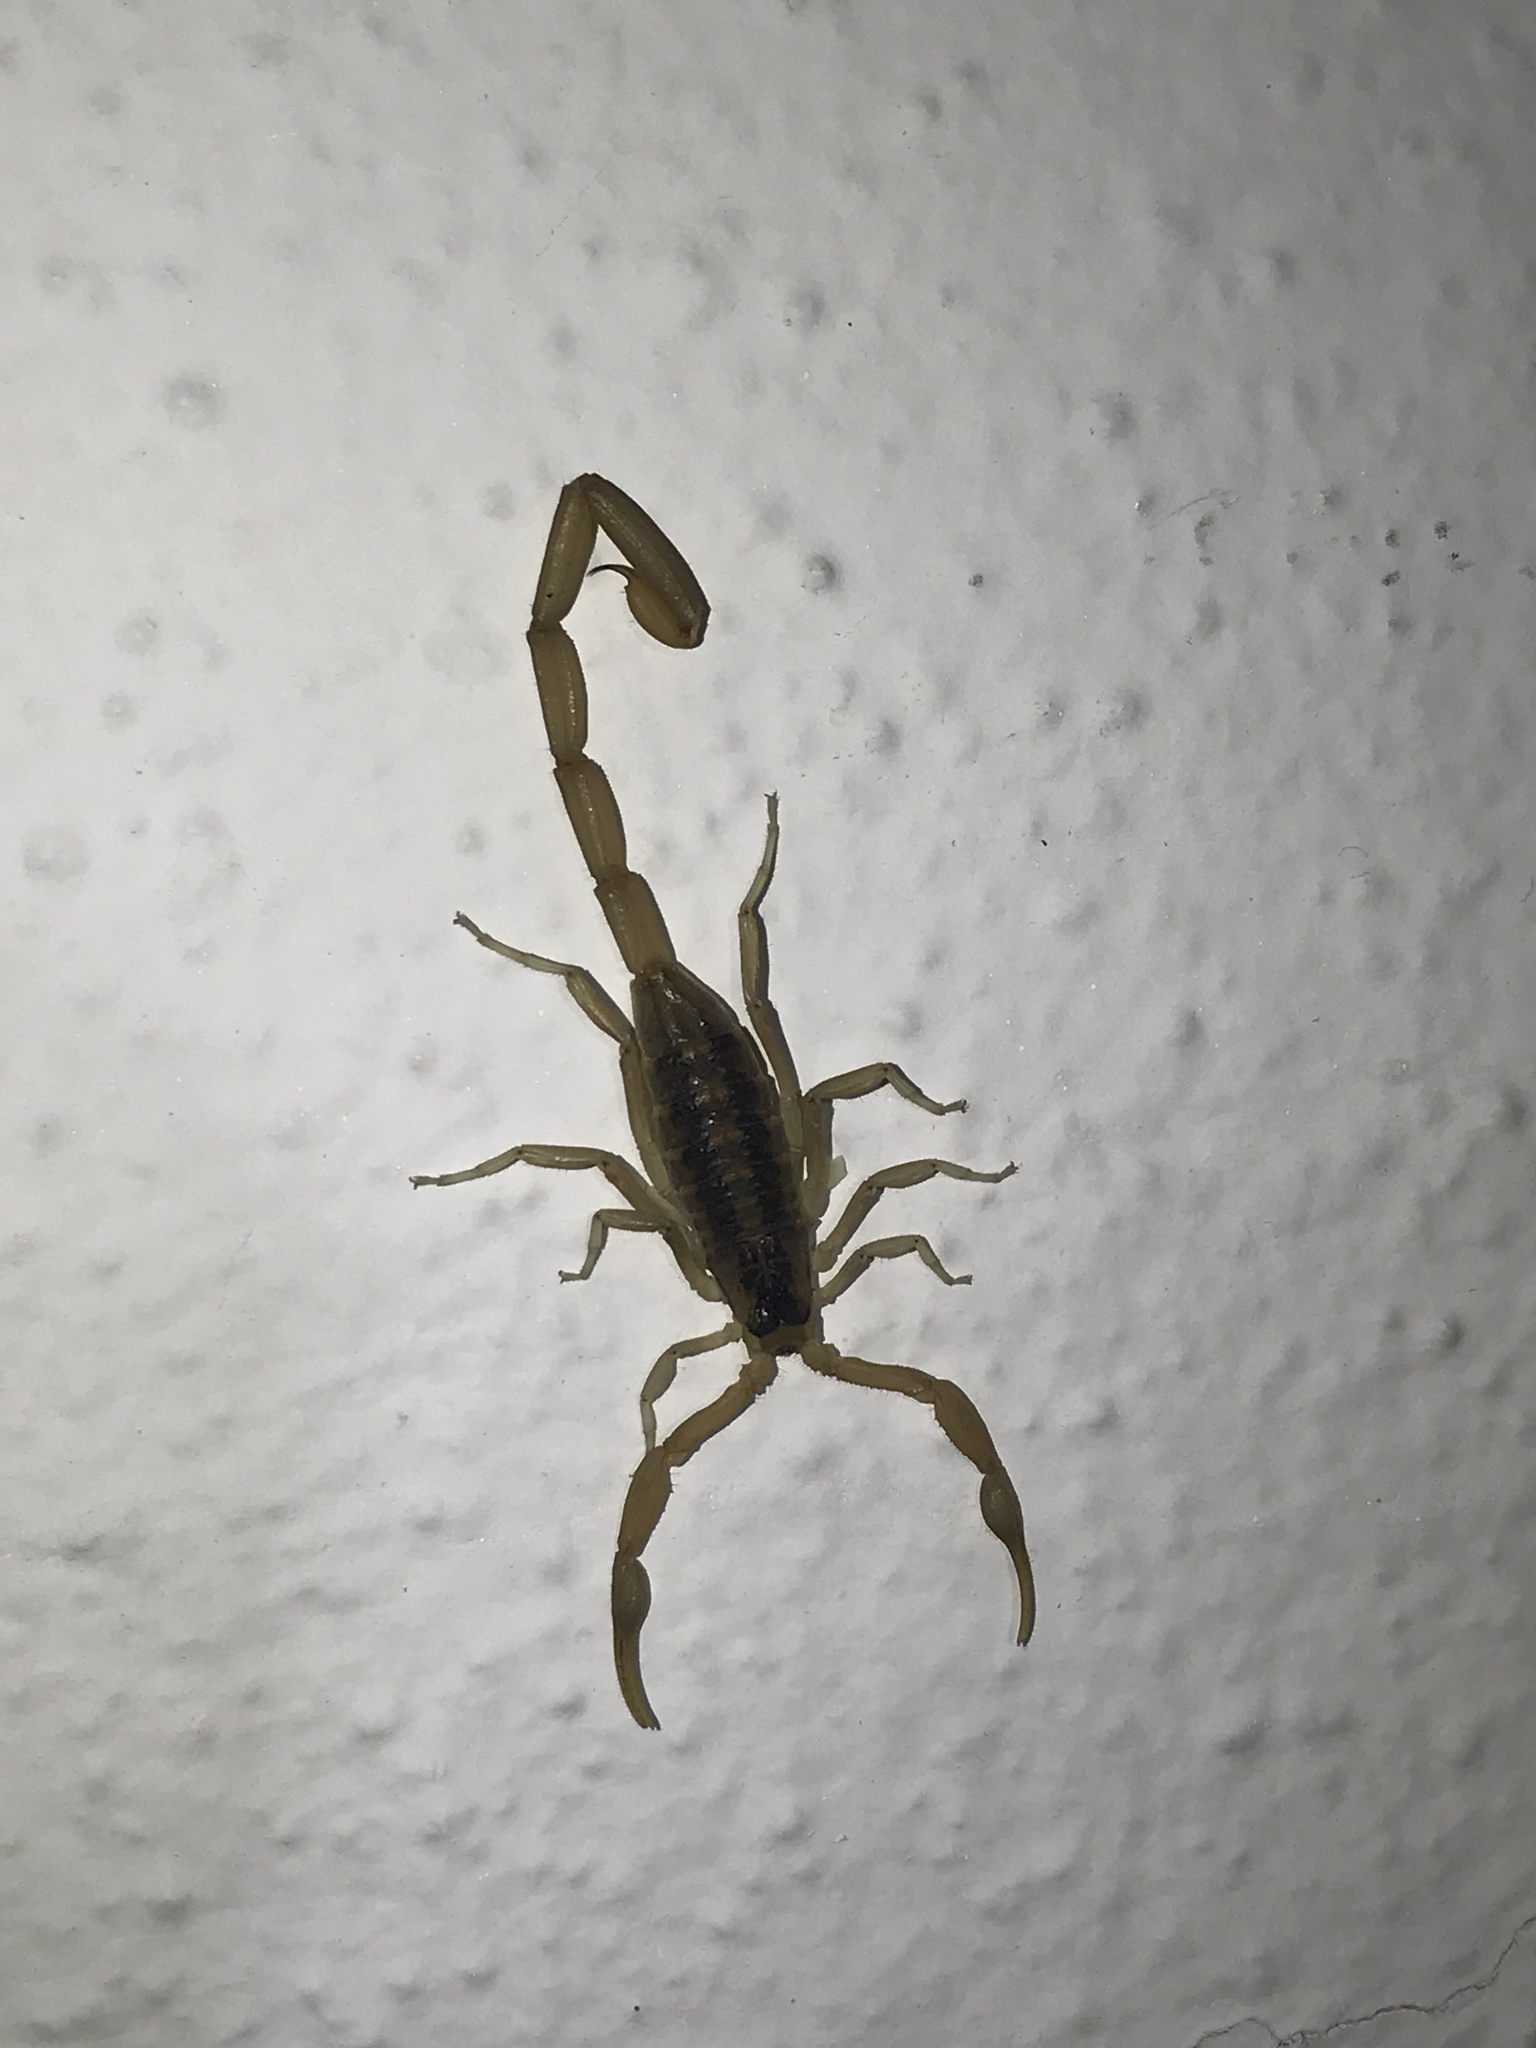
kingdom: Animalia
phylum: Arthropoda
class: Arachnida
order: Scorpiones
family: Buthidae
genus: Centruroides
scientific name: Centruroides vittatus
